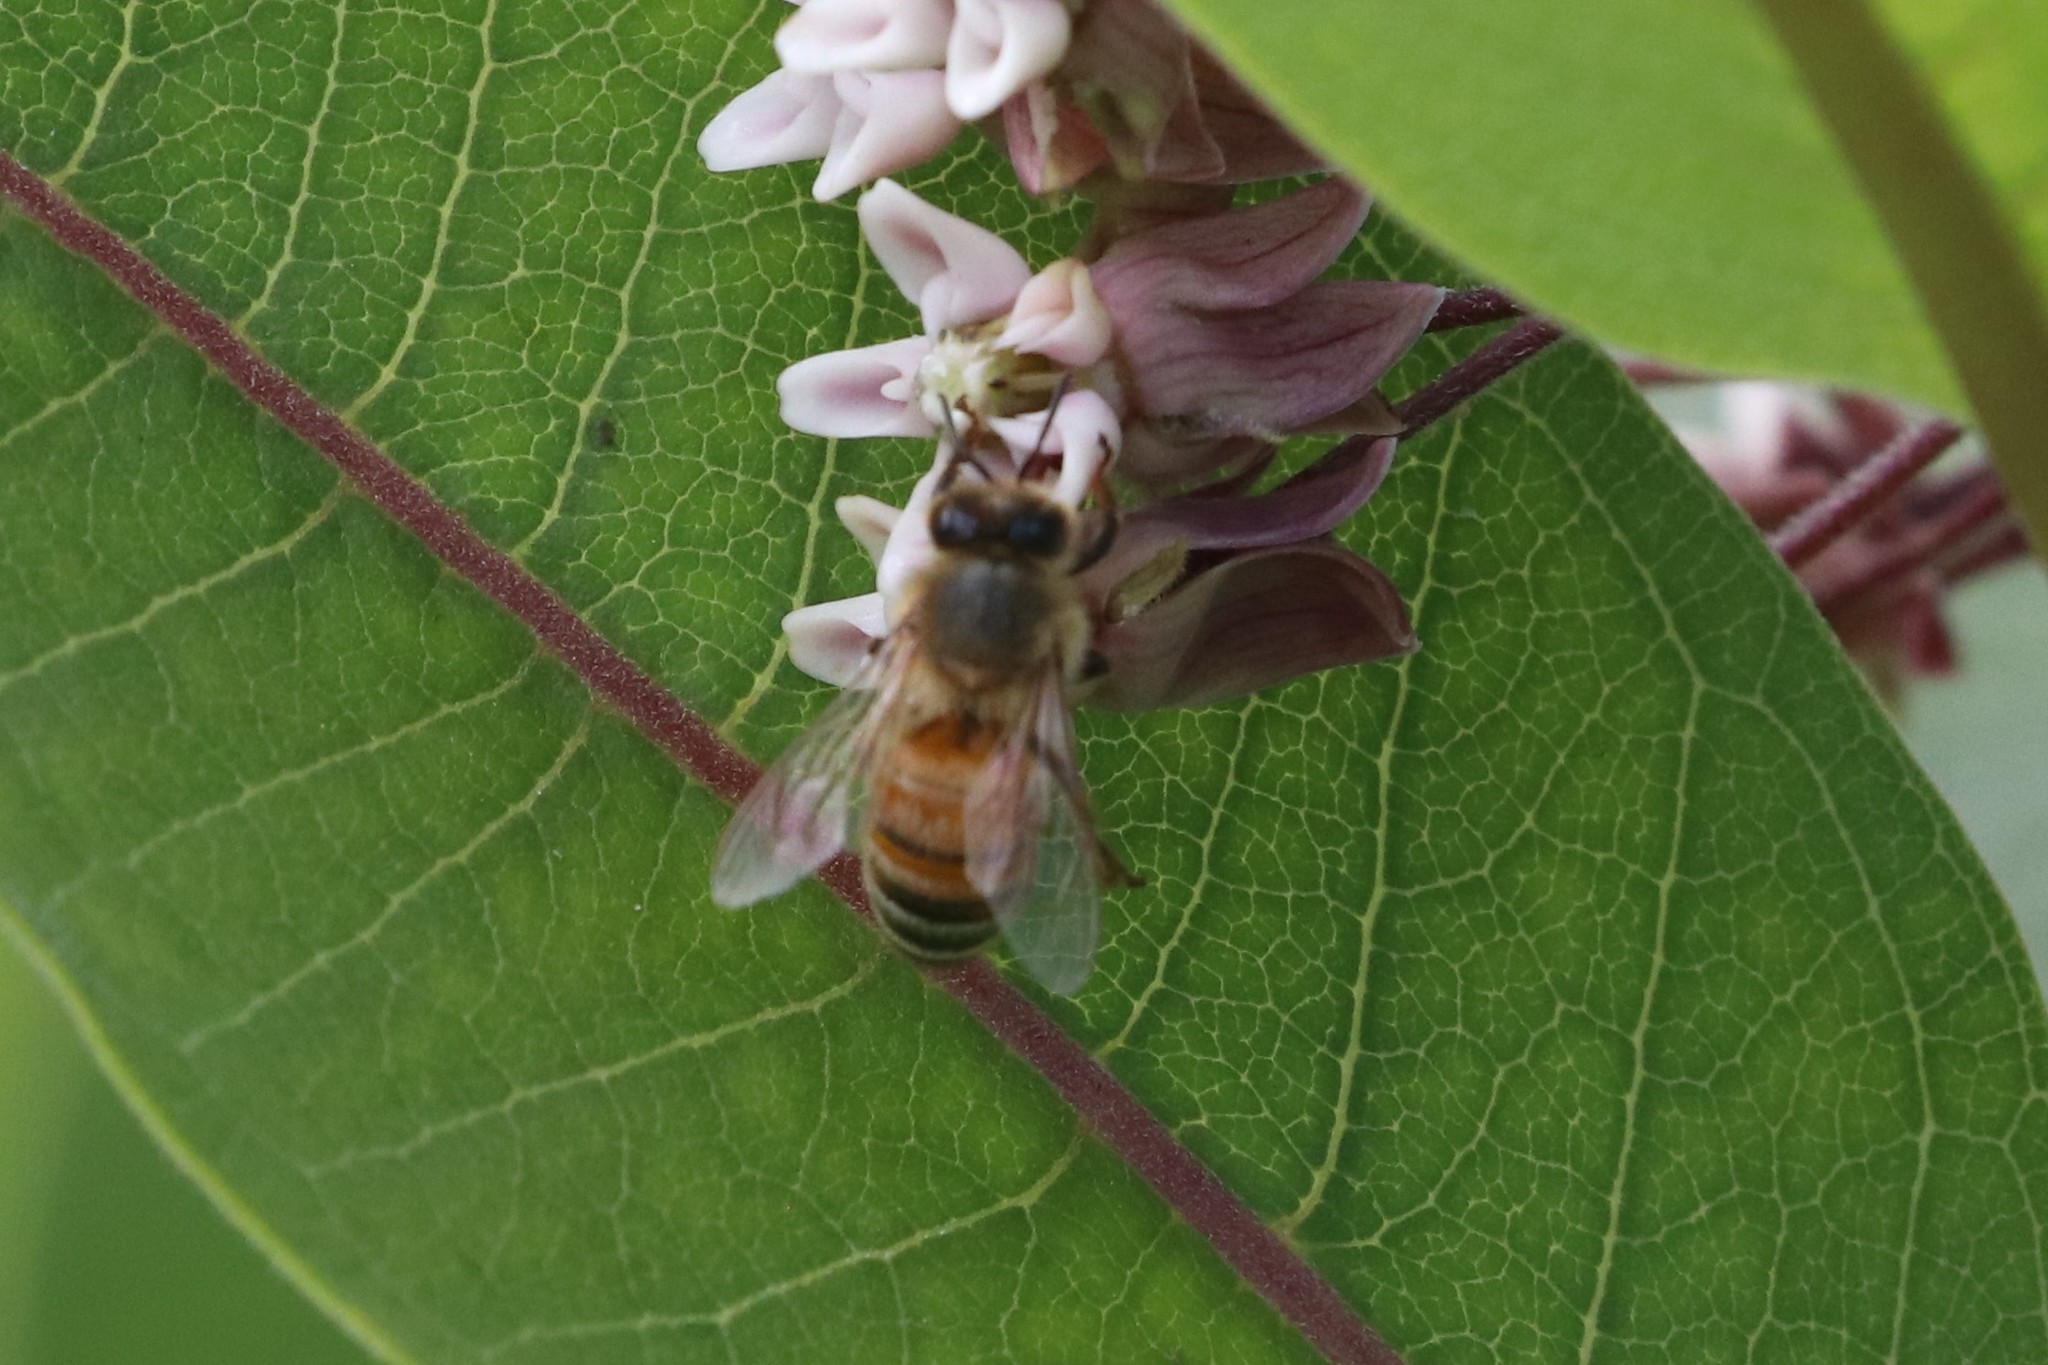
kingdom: Animalia
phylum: Arthropoda
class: Insecta
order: Hymenoptera
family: Apidae
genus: Apis
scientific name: Apis mellifera
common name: Honey bee
